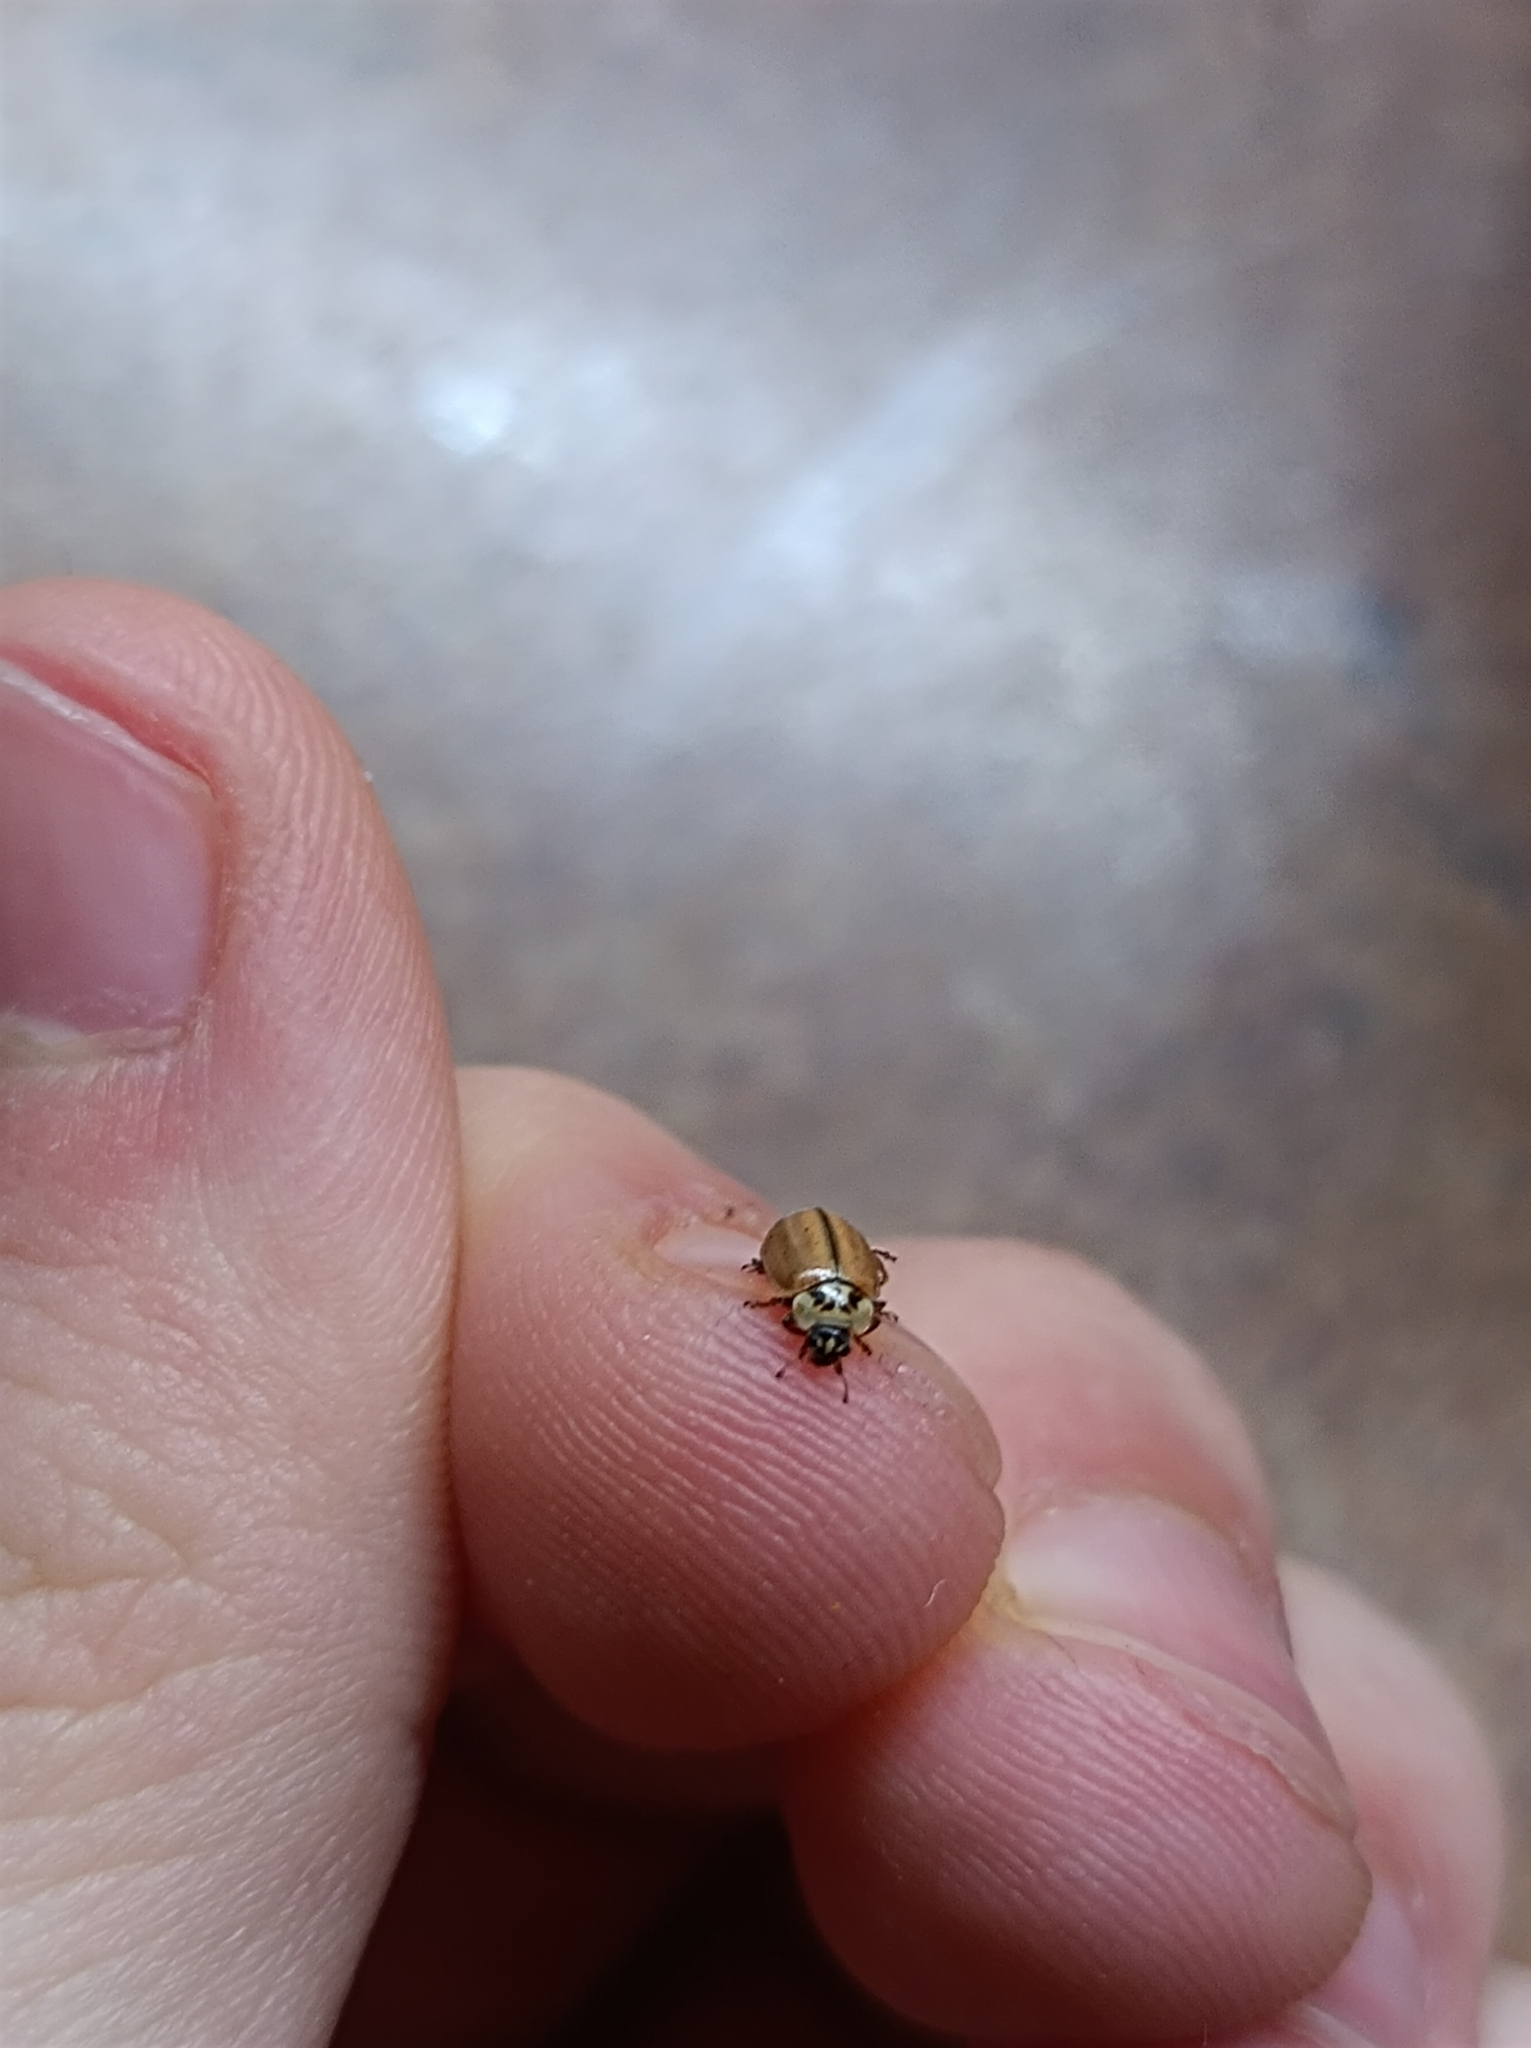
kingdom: Animalia
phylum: Arthropoda
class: Insecta
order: Coleoptera
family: Coccinellidae
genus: Aphidecta
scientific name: Aphidecta obliterata
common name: Larch ladybird
